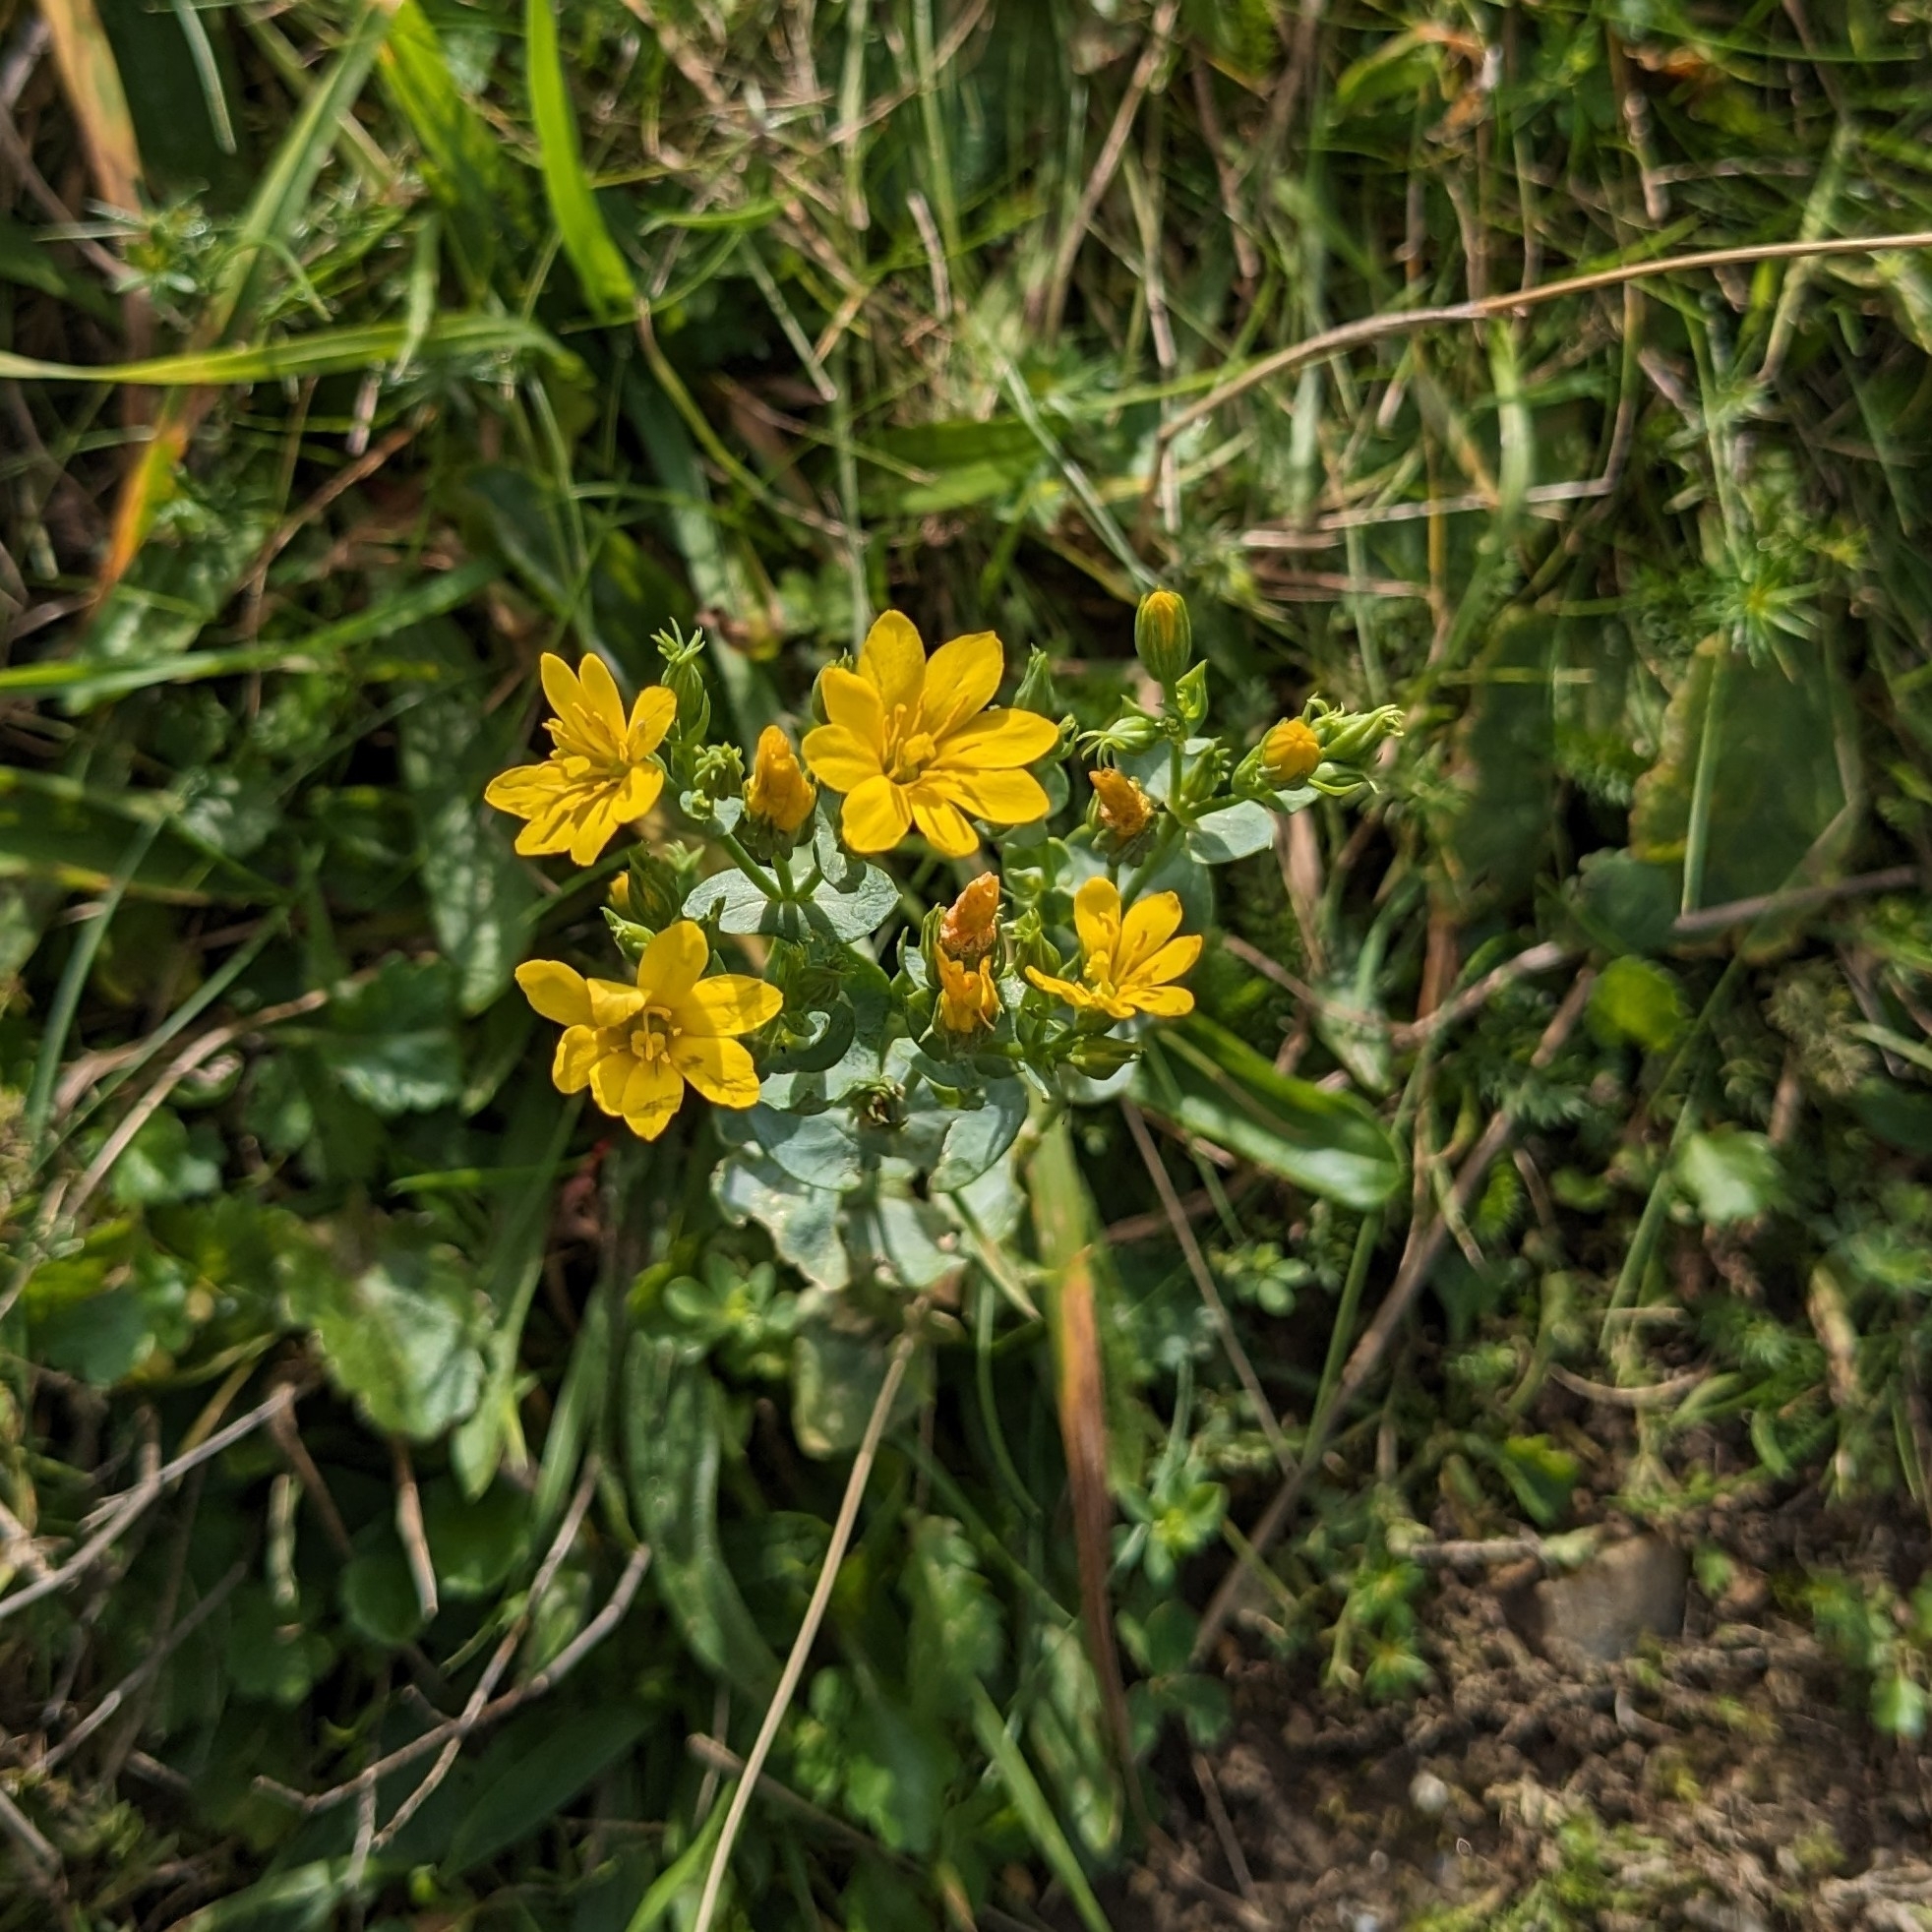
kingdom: Plantae
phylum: Tracheophyta
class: Magnoliopsida
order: Gentianales
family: Gentianaceae
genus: Blackstonia
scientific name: Blackstonia perfoliata
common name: Yellow-wort
